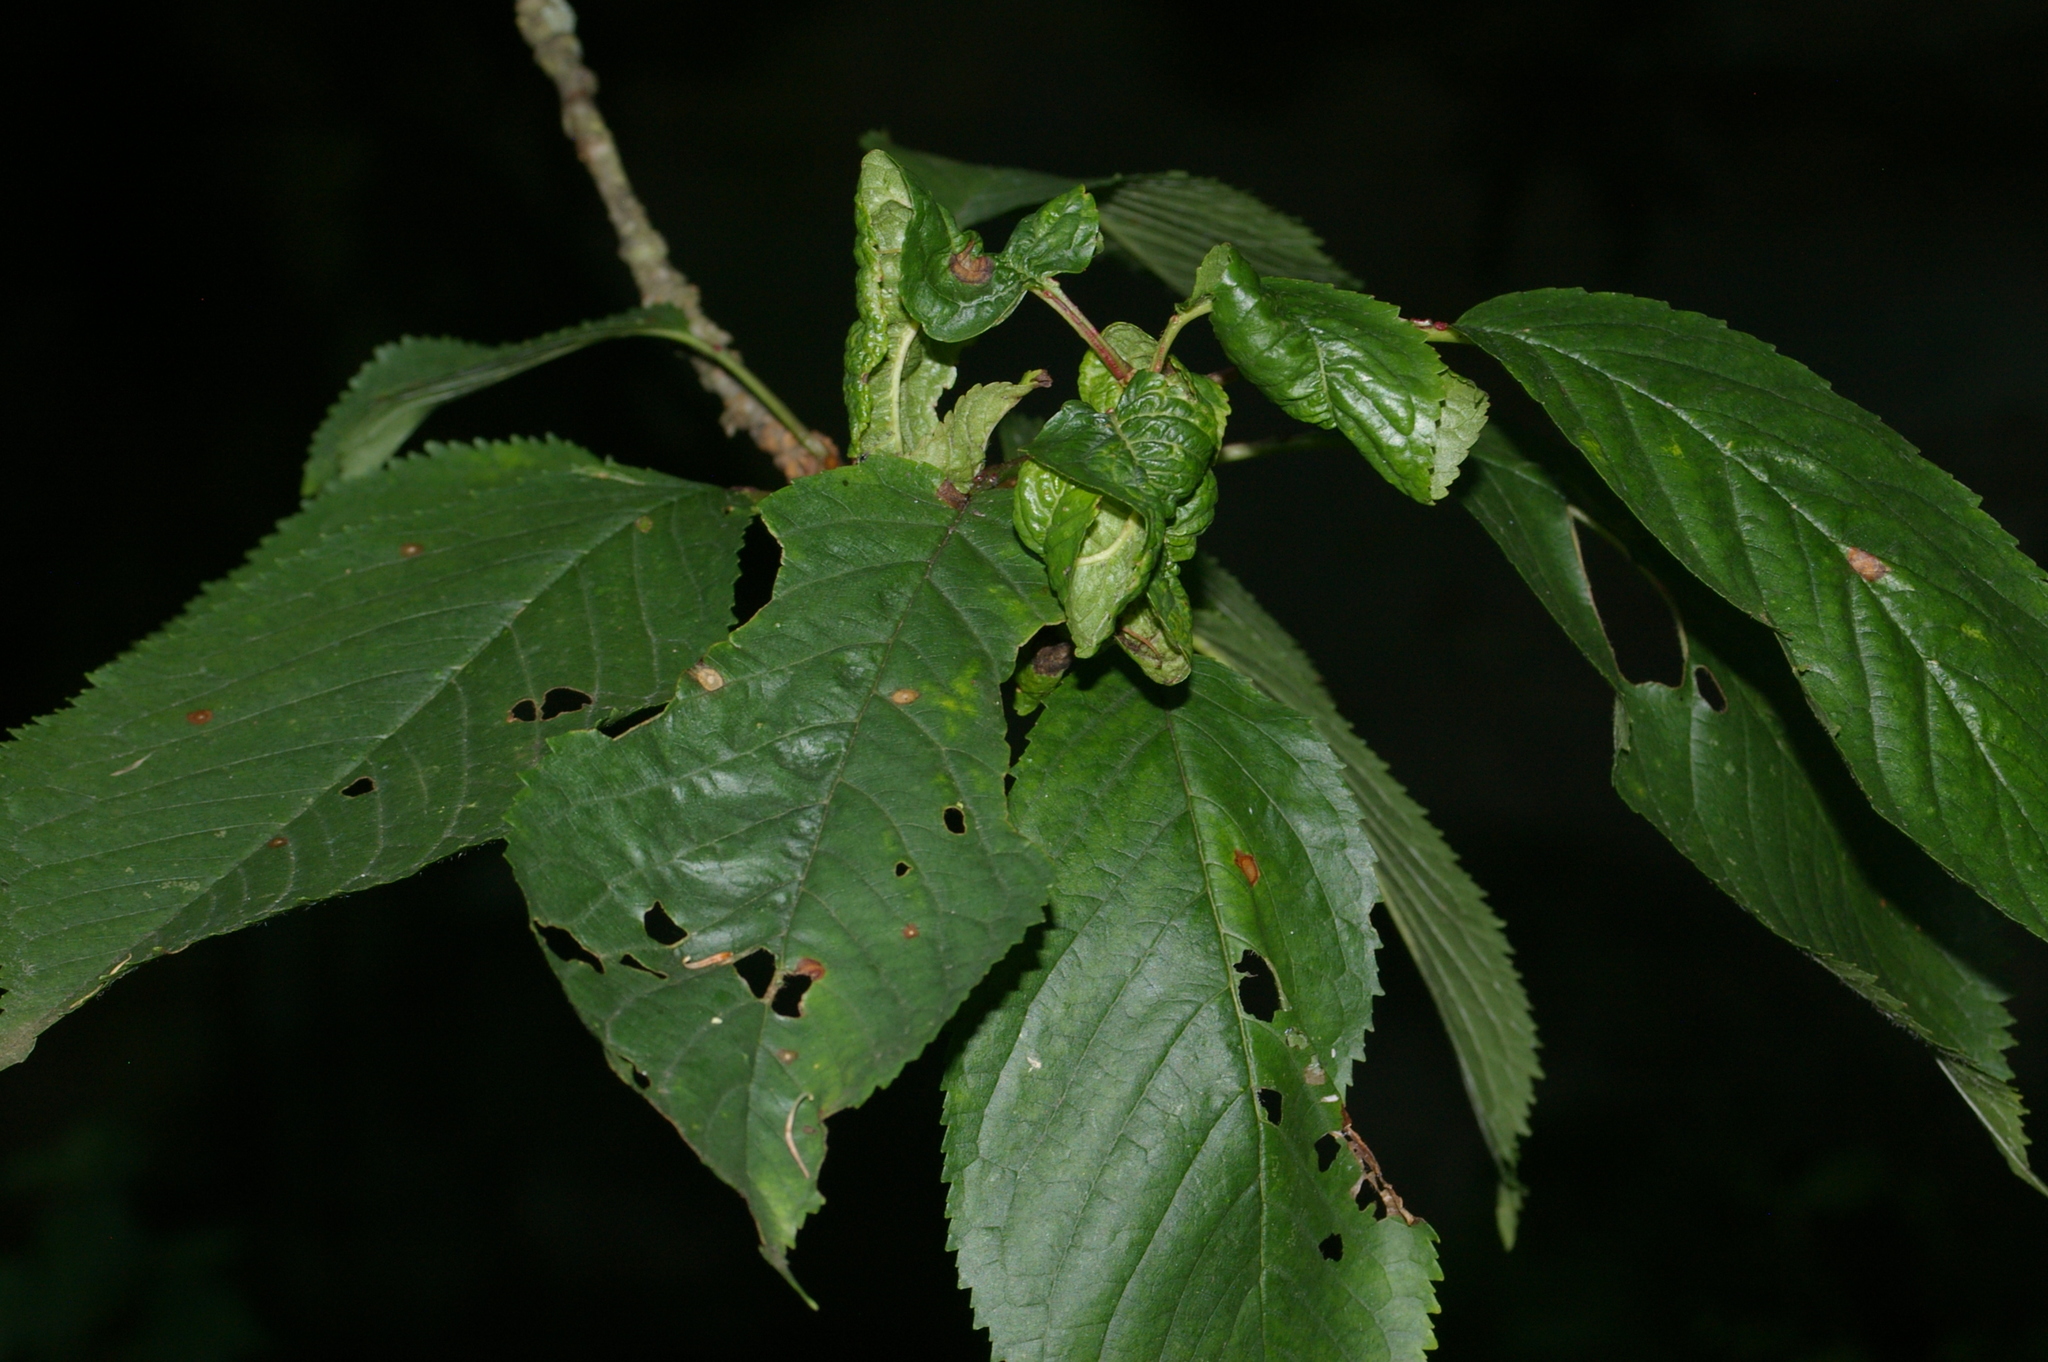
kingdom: Animalia
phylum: Arthropoda
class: Insecta
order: Hemiptera
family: Aphididae
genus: Myzus
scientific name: Myzus cerasi
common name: Black cherry aphid
